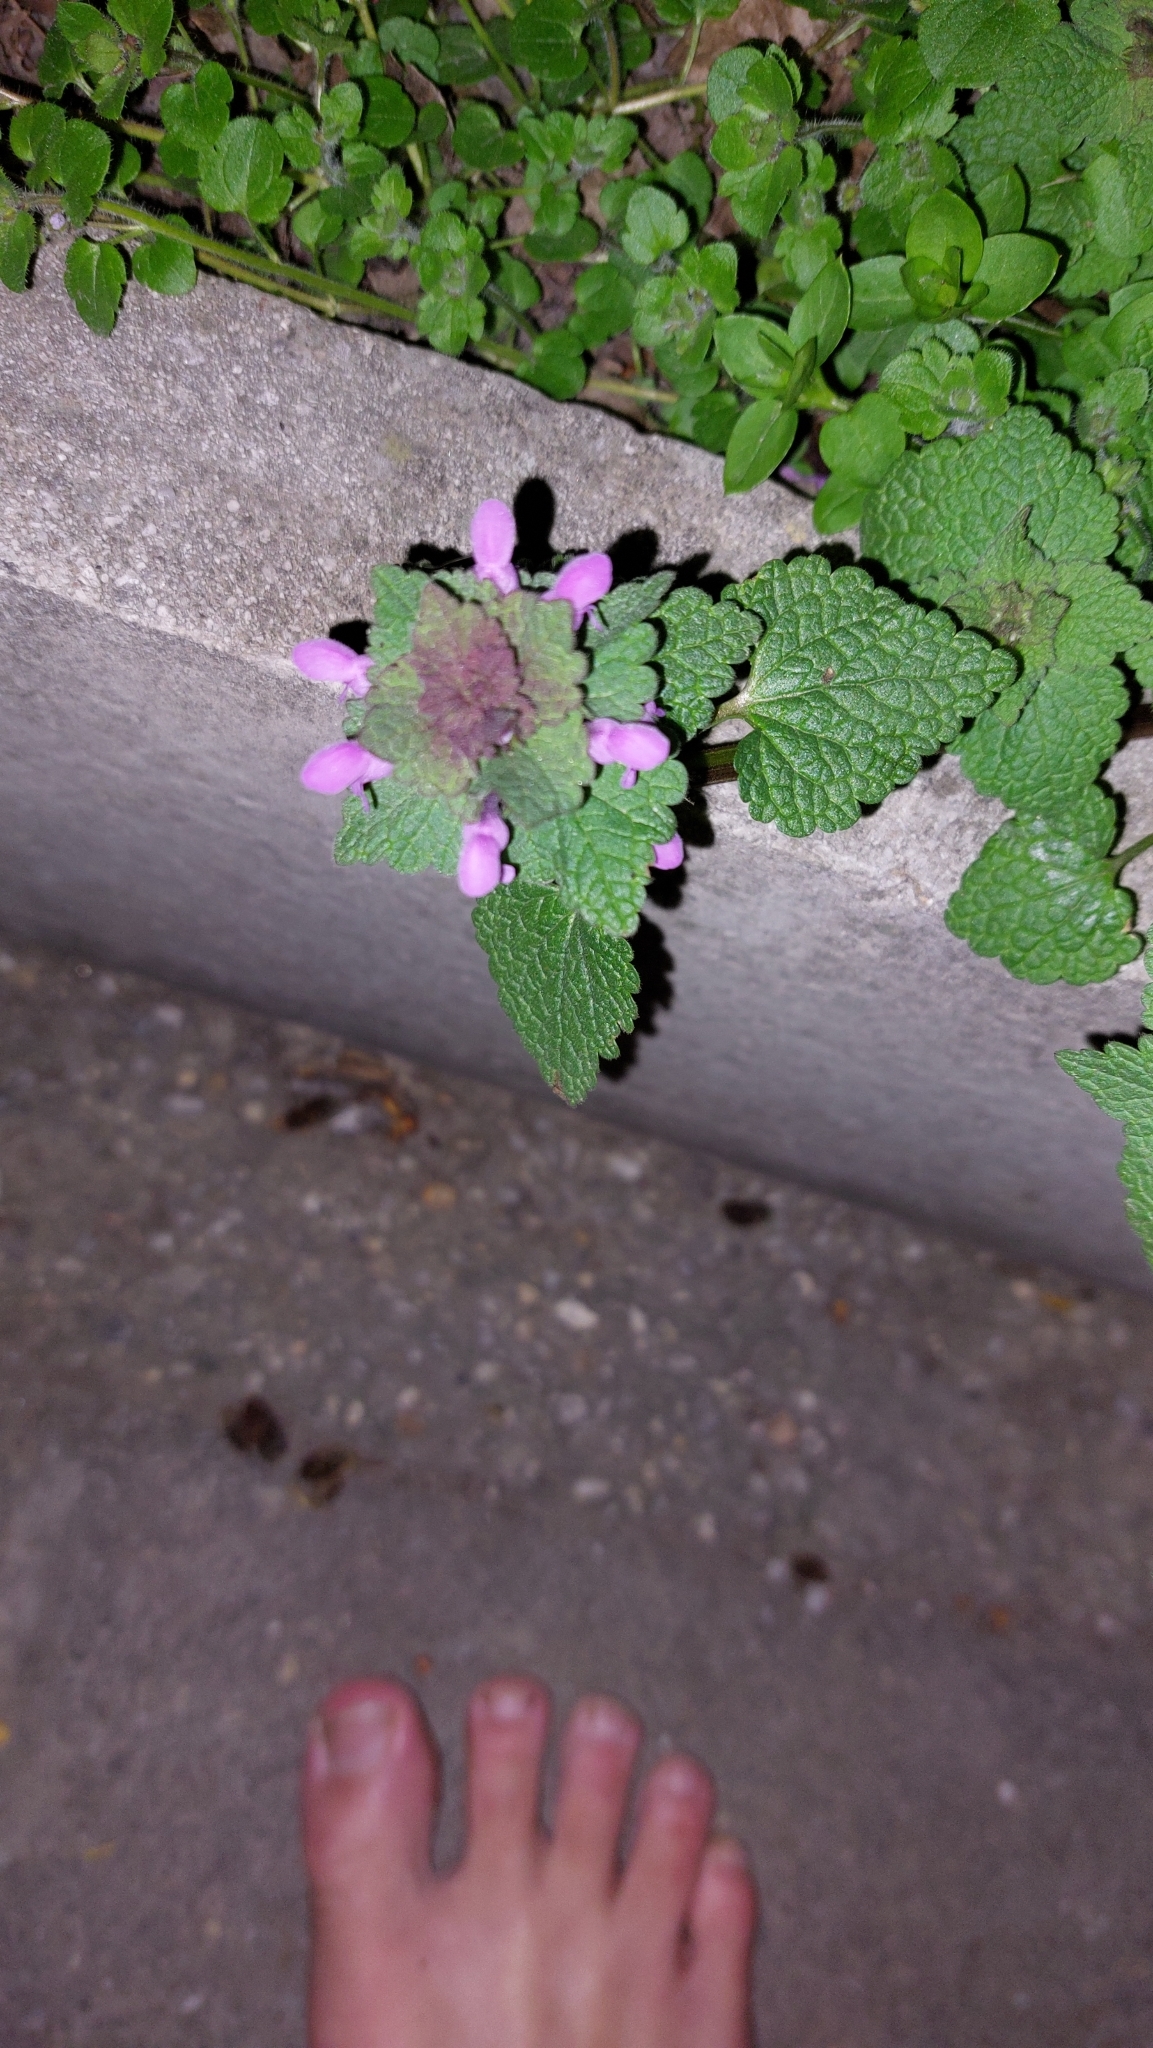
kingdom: Plantae
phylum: Tracheophyta
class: Magnoliopsida
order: Lamiales
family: Lamiaceae
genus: Lamium
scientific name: Lamium purpureum
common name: Red dead-nettle
